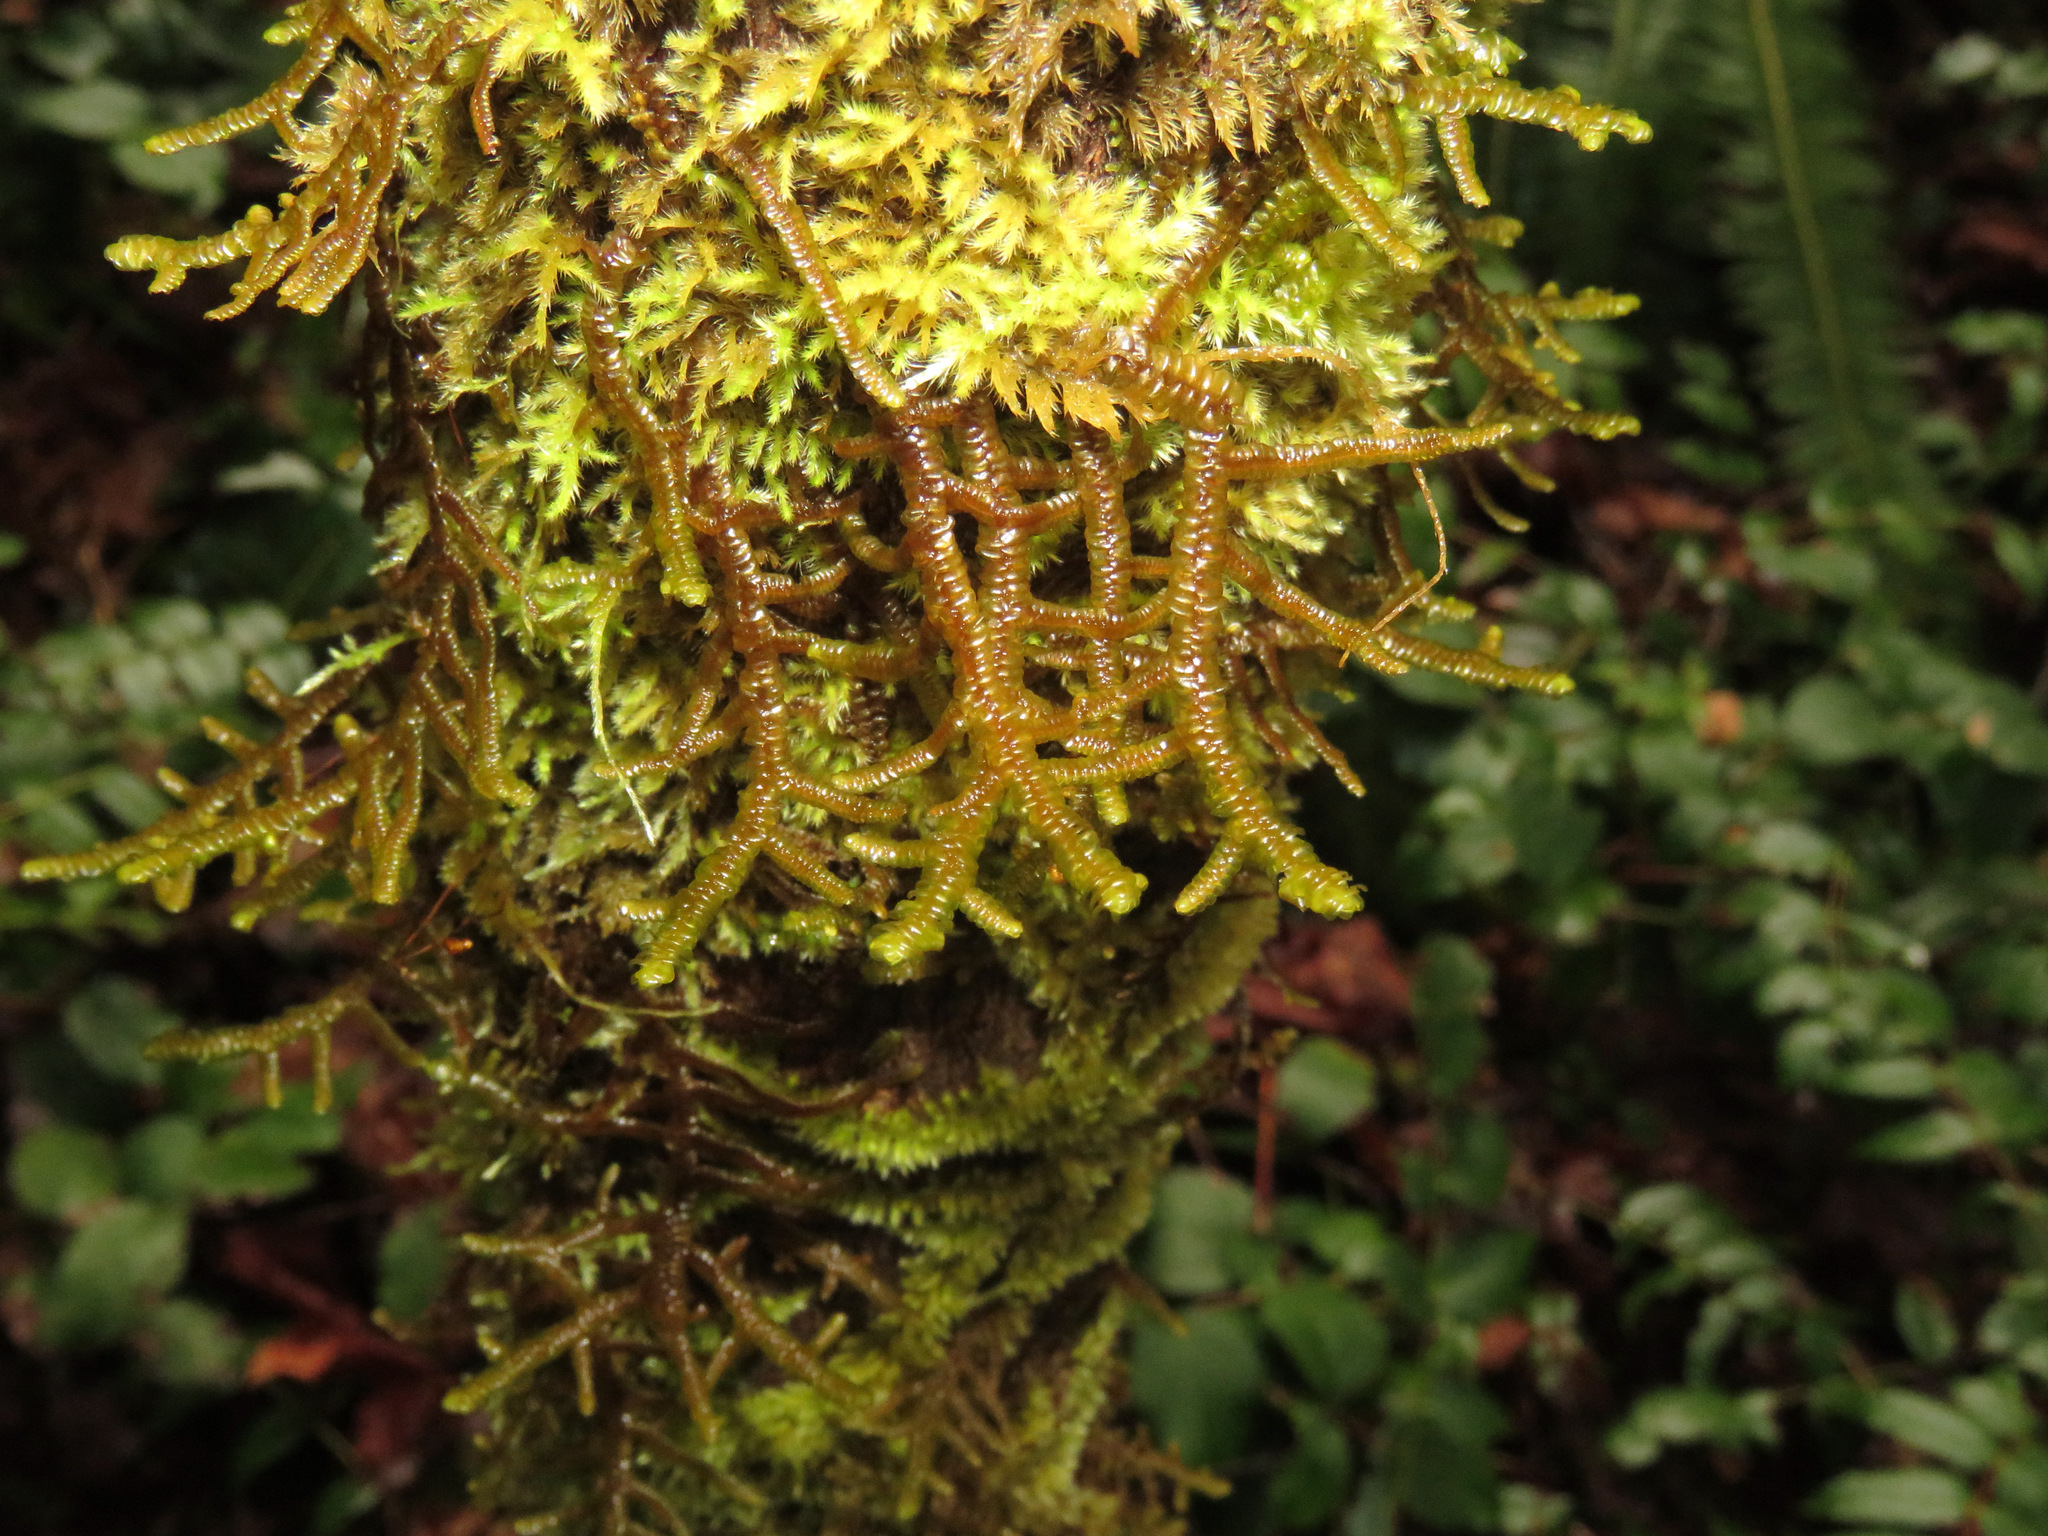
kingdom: Plantae
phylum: Marchantiophyta
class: Jungermanniopsida
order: Porellales
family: Porellaceae
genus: Porella
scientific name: Porella navicularis
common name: Tree ruffle liverwort
